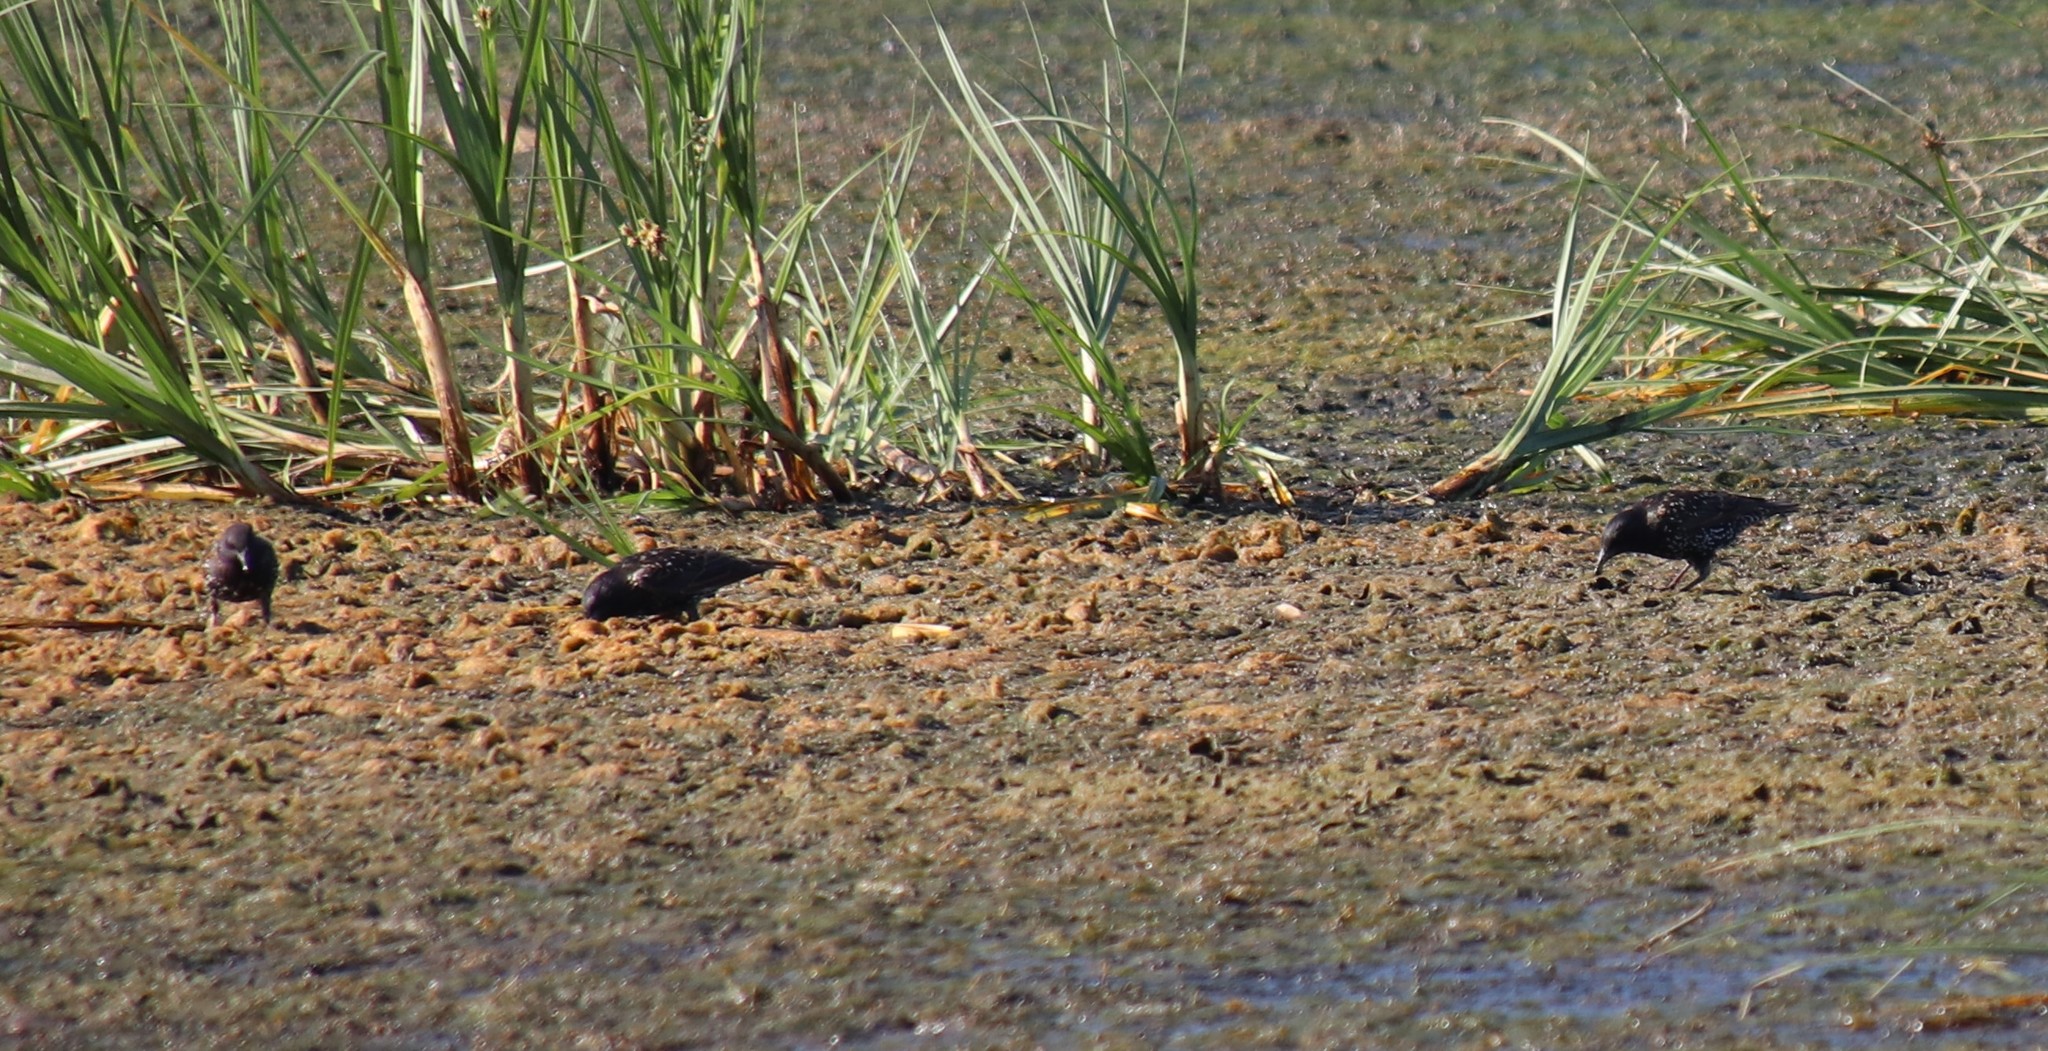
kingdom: Animalia
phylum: Chordata
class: Aves
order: Passeriformes
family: Sturnidae
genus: Sturnus
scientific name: Sturnus vulgaris
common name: Common starling
